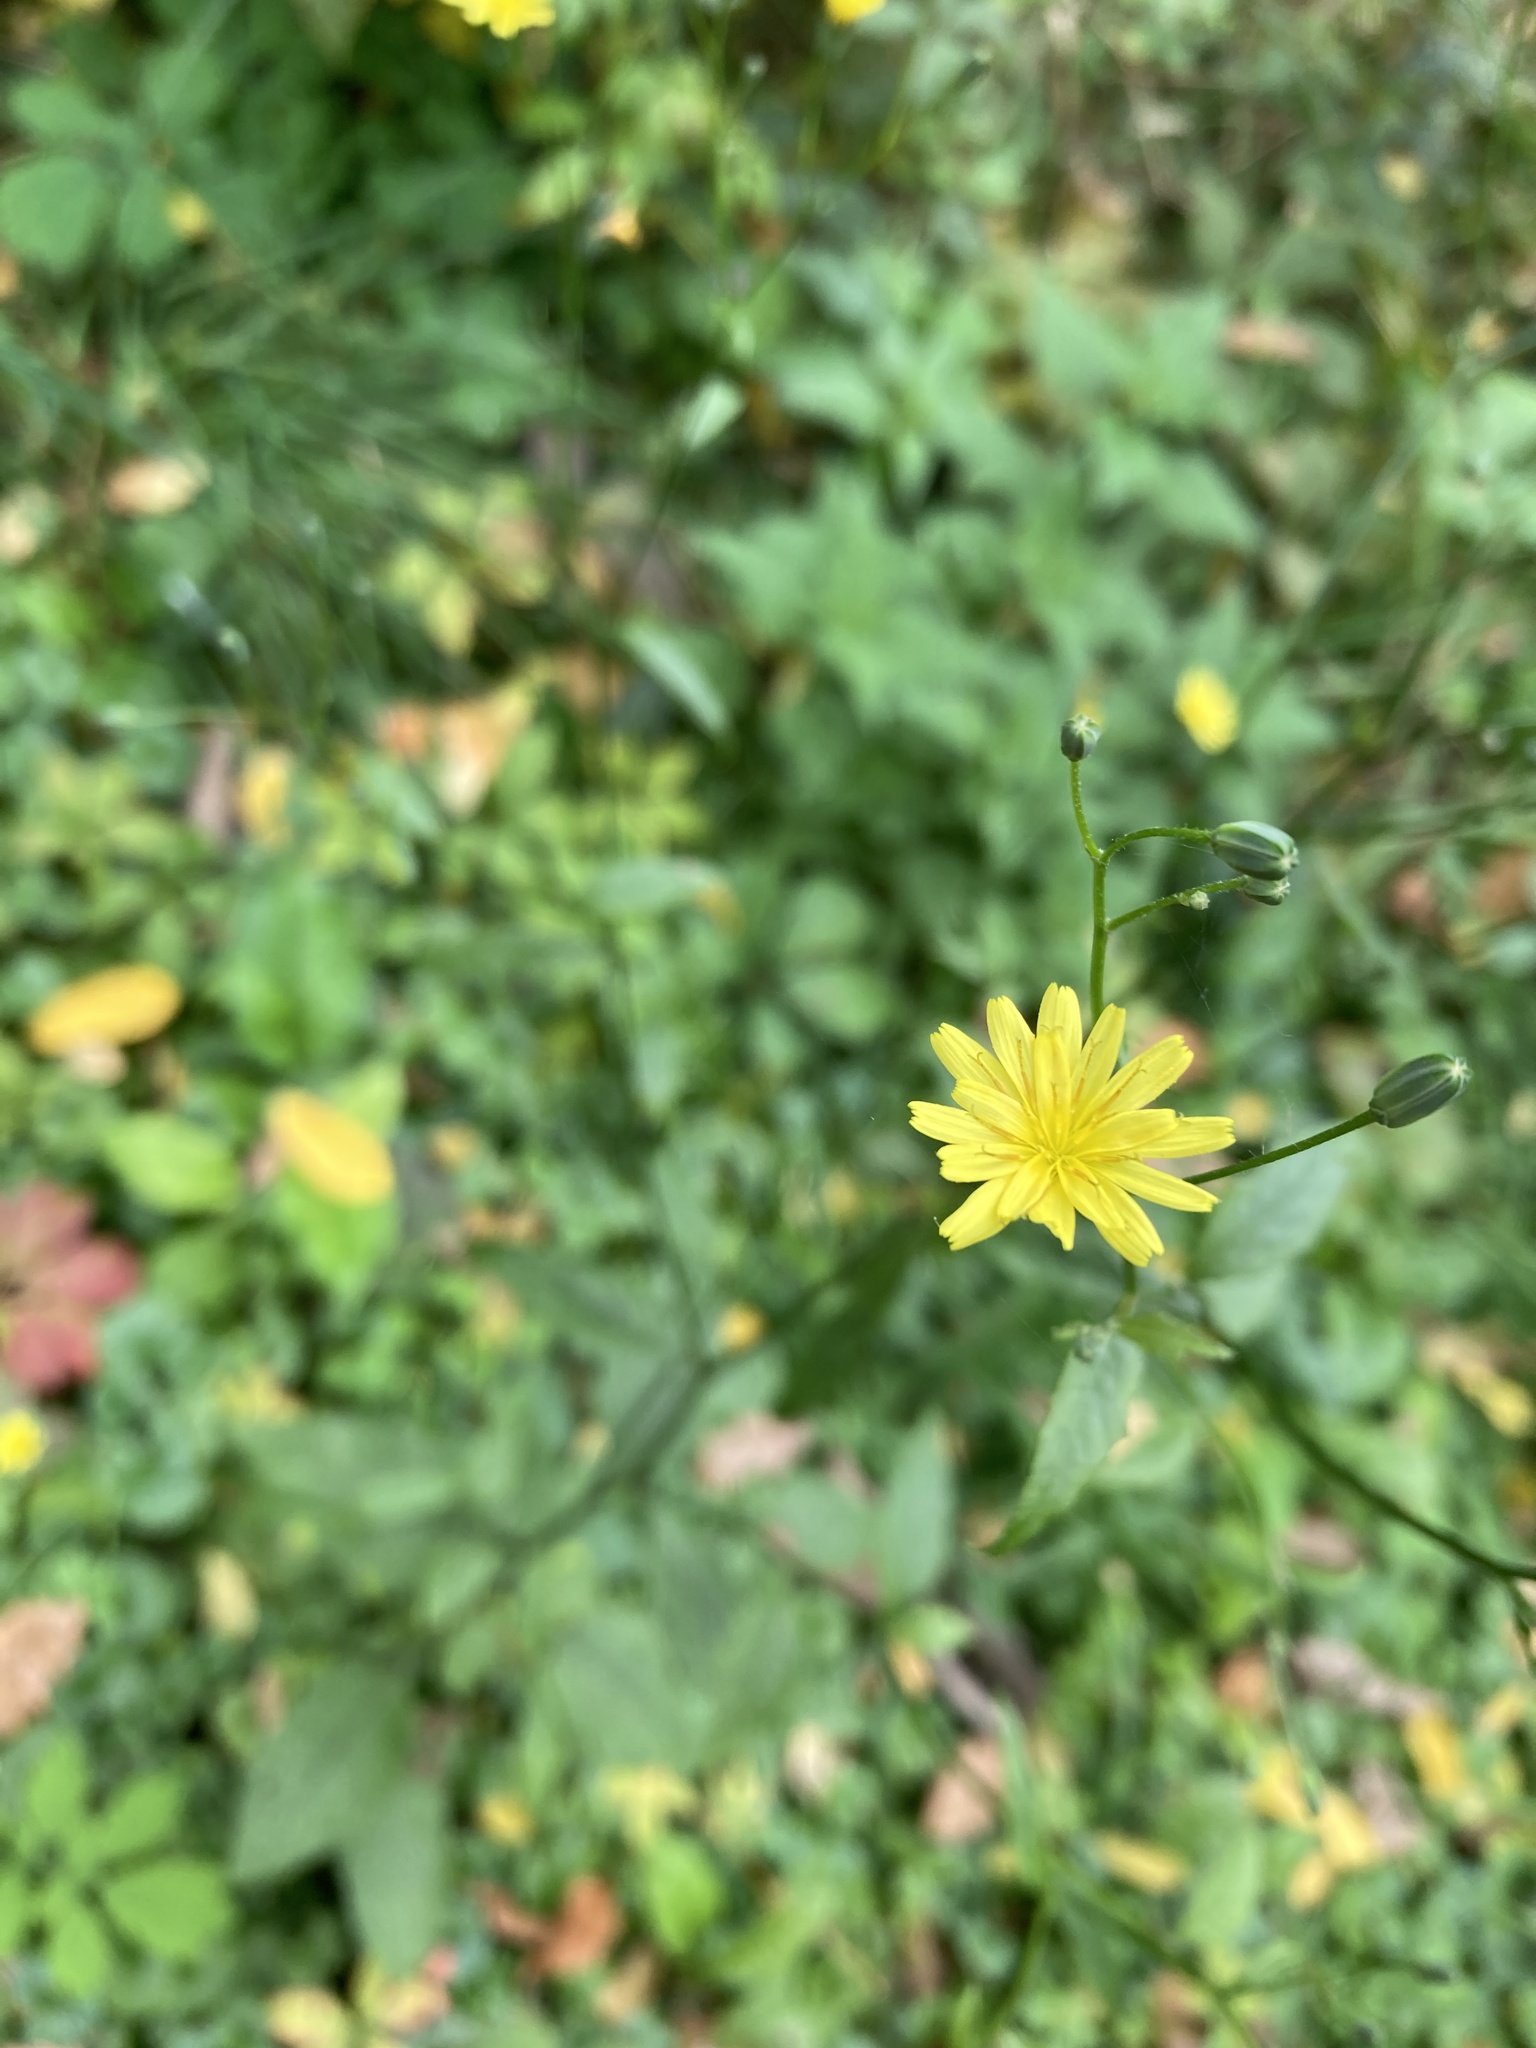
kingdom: Plantae
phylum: Tracheophyta
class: Magnoliopsida
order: Asterales
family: Asteraceae
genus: Lapsana
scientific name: Lapsana communis
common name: Nipplewort
